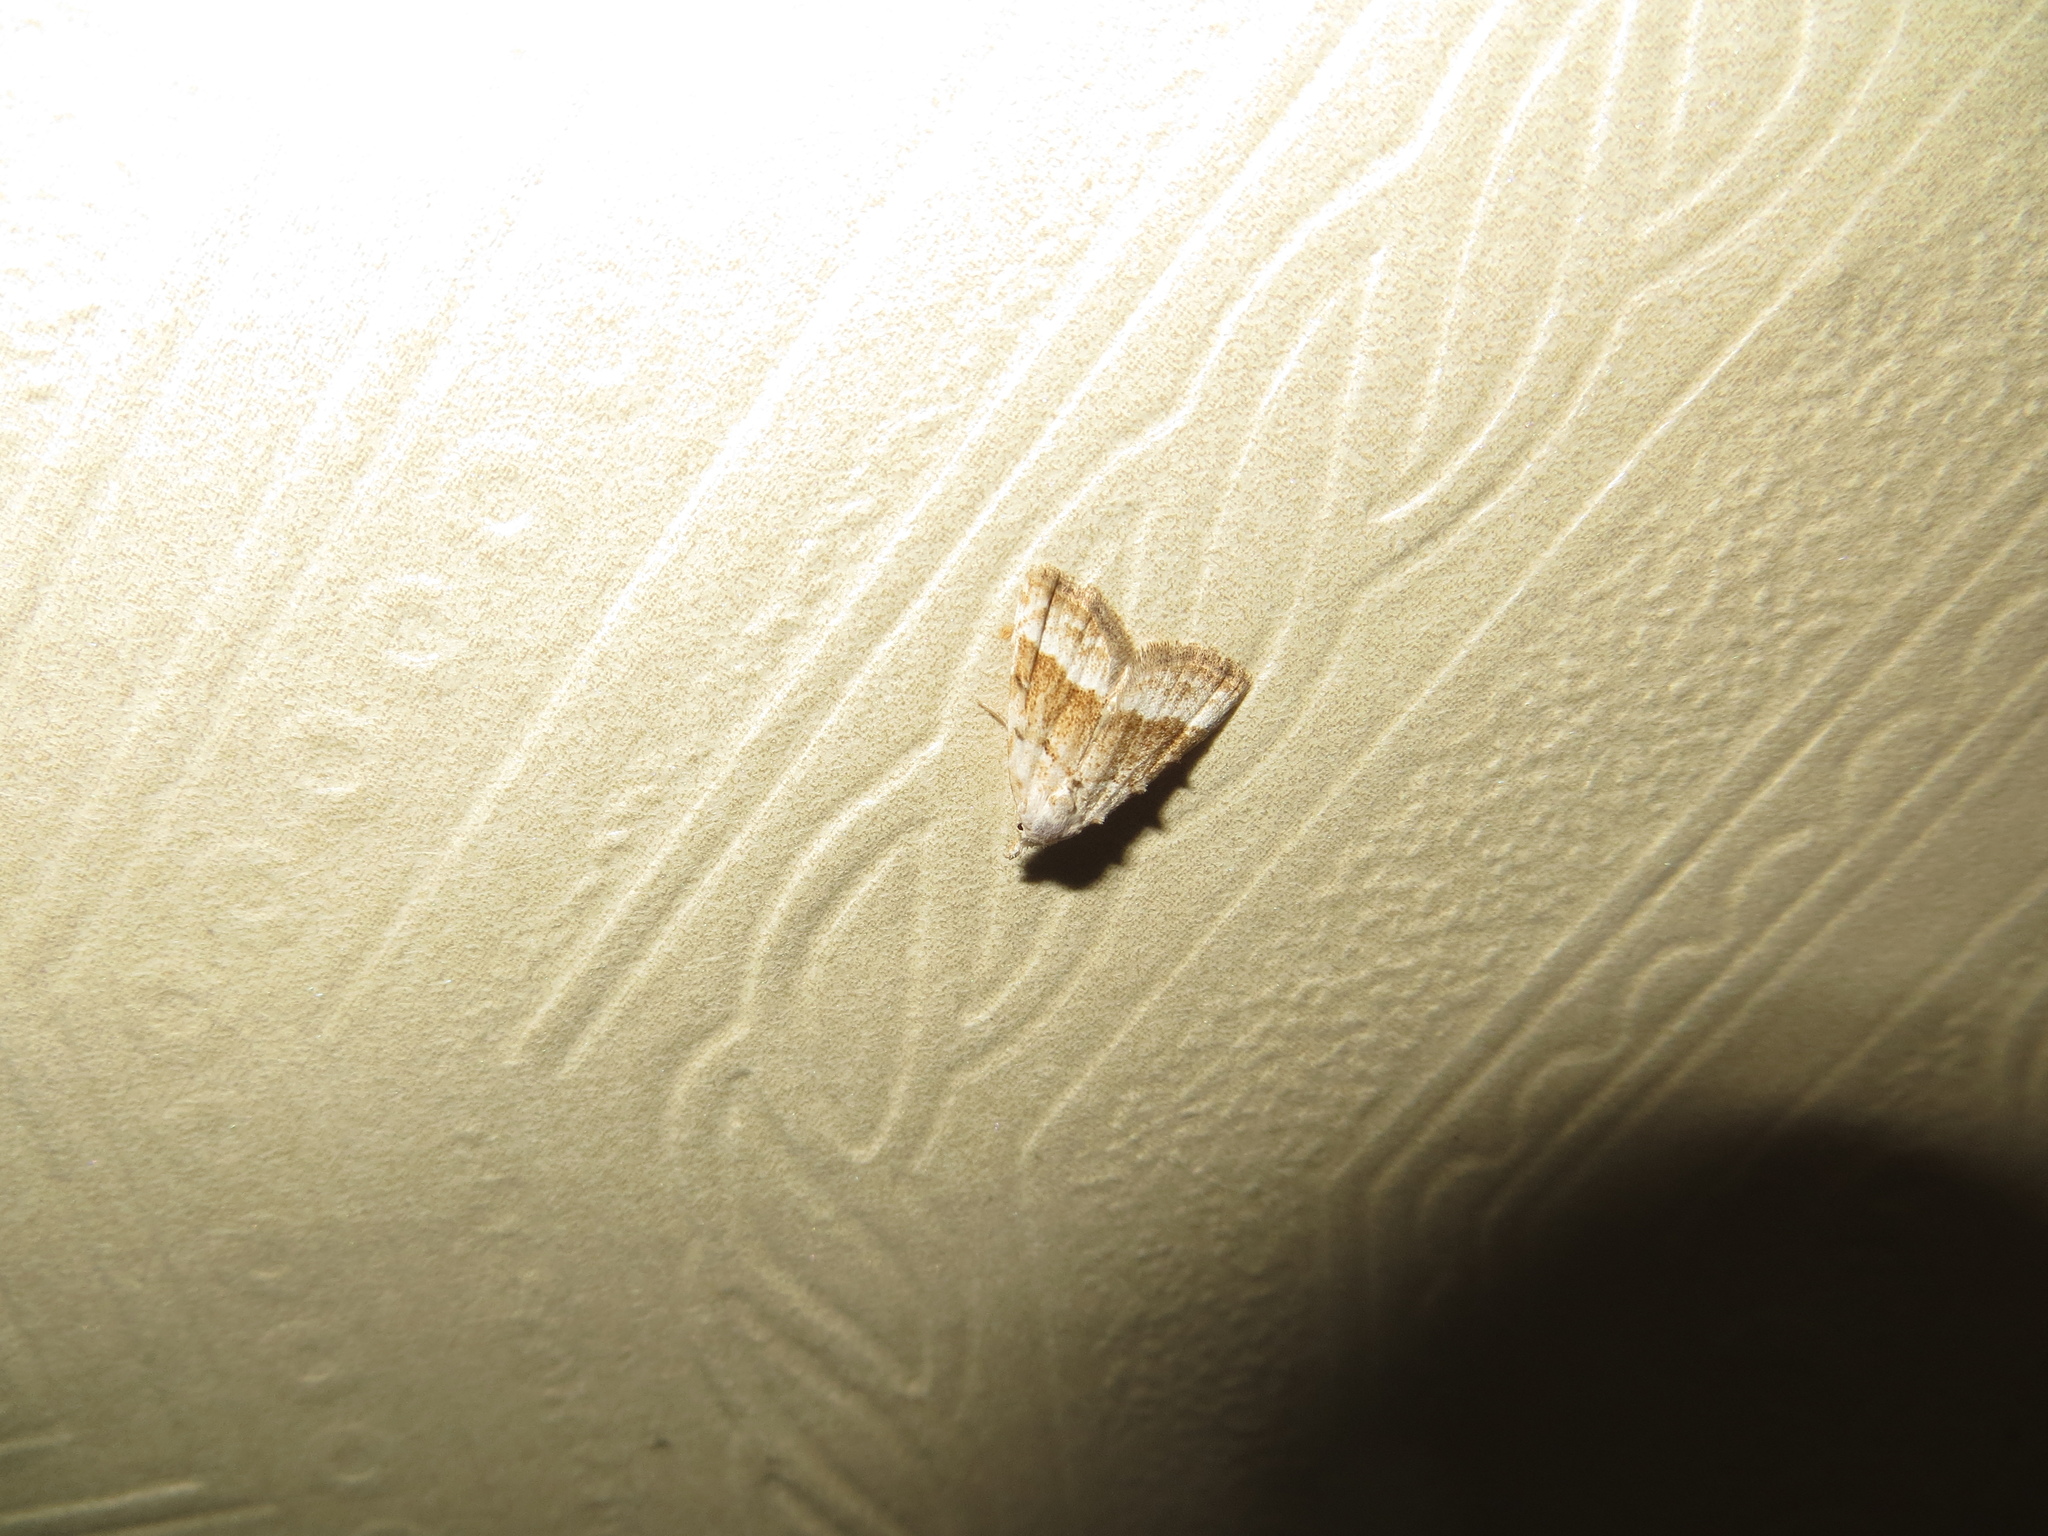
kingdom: Animalia
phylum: Arthropoda
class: Insecta
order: Lepidoptera
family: Nolidae
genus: Nola
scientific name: Nola aerugula
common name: Scarce black arches
